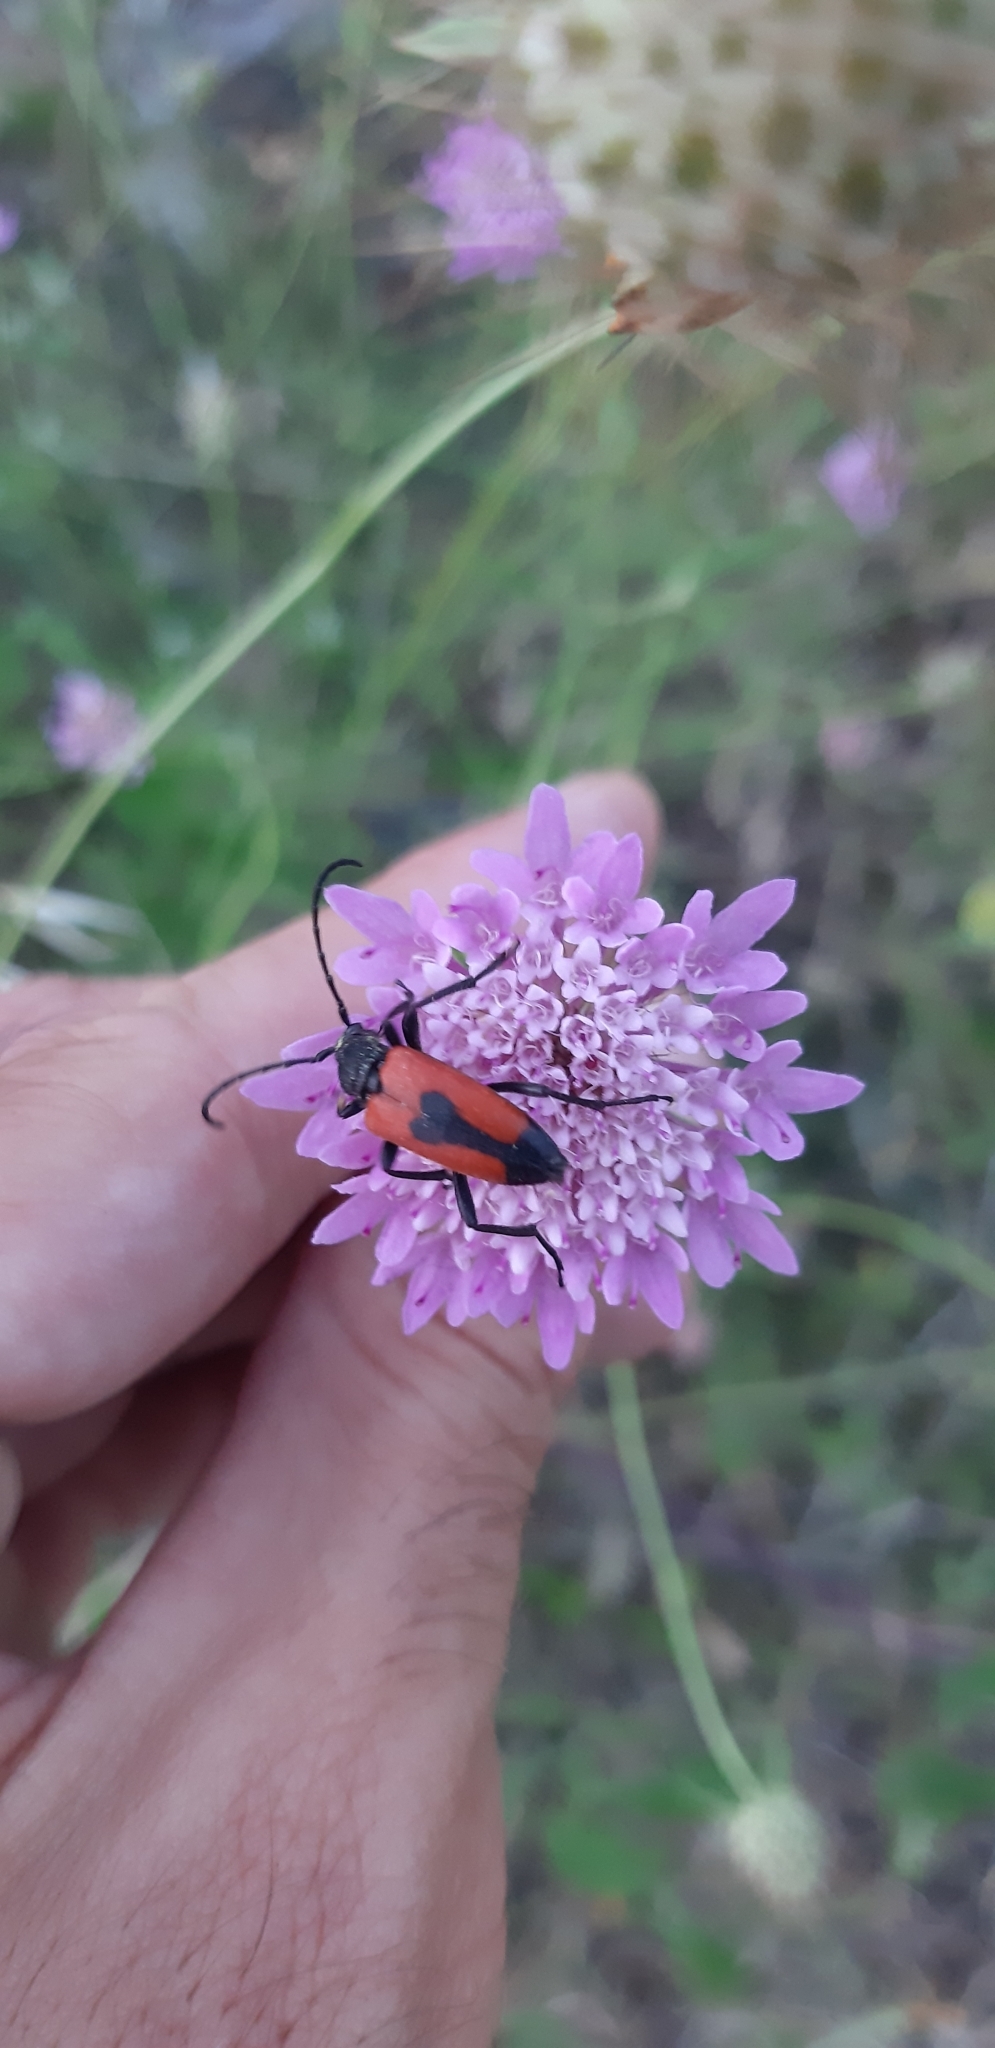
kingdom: Animalia
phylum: Arthropoda
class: Insecta
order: Coleoptera
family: Cerambycidae
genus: Stictoleptura
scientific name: Stictoleptura cordigera
